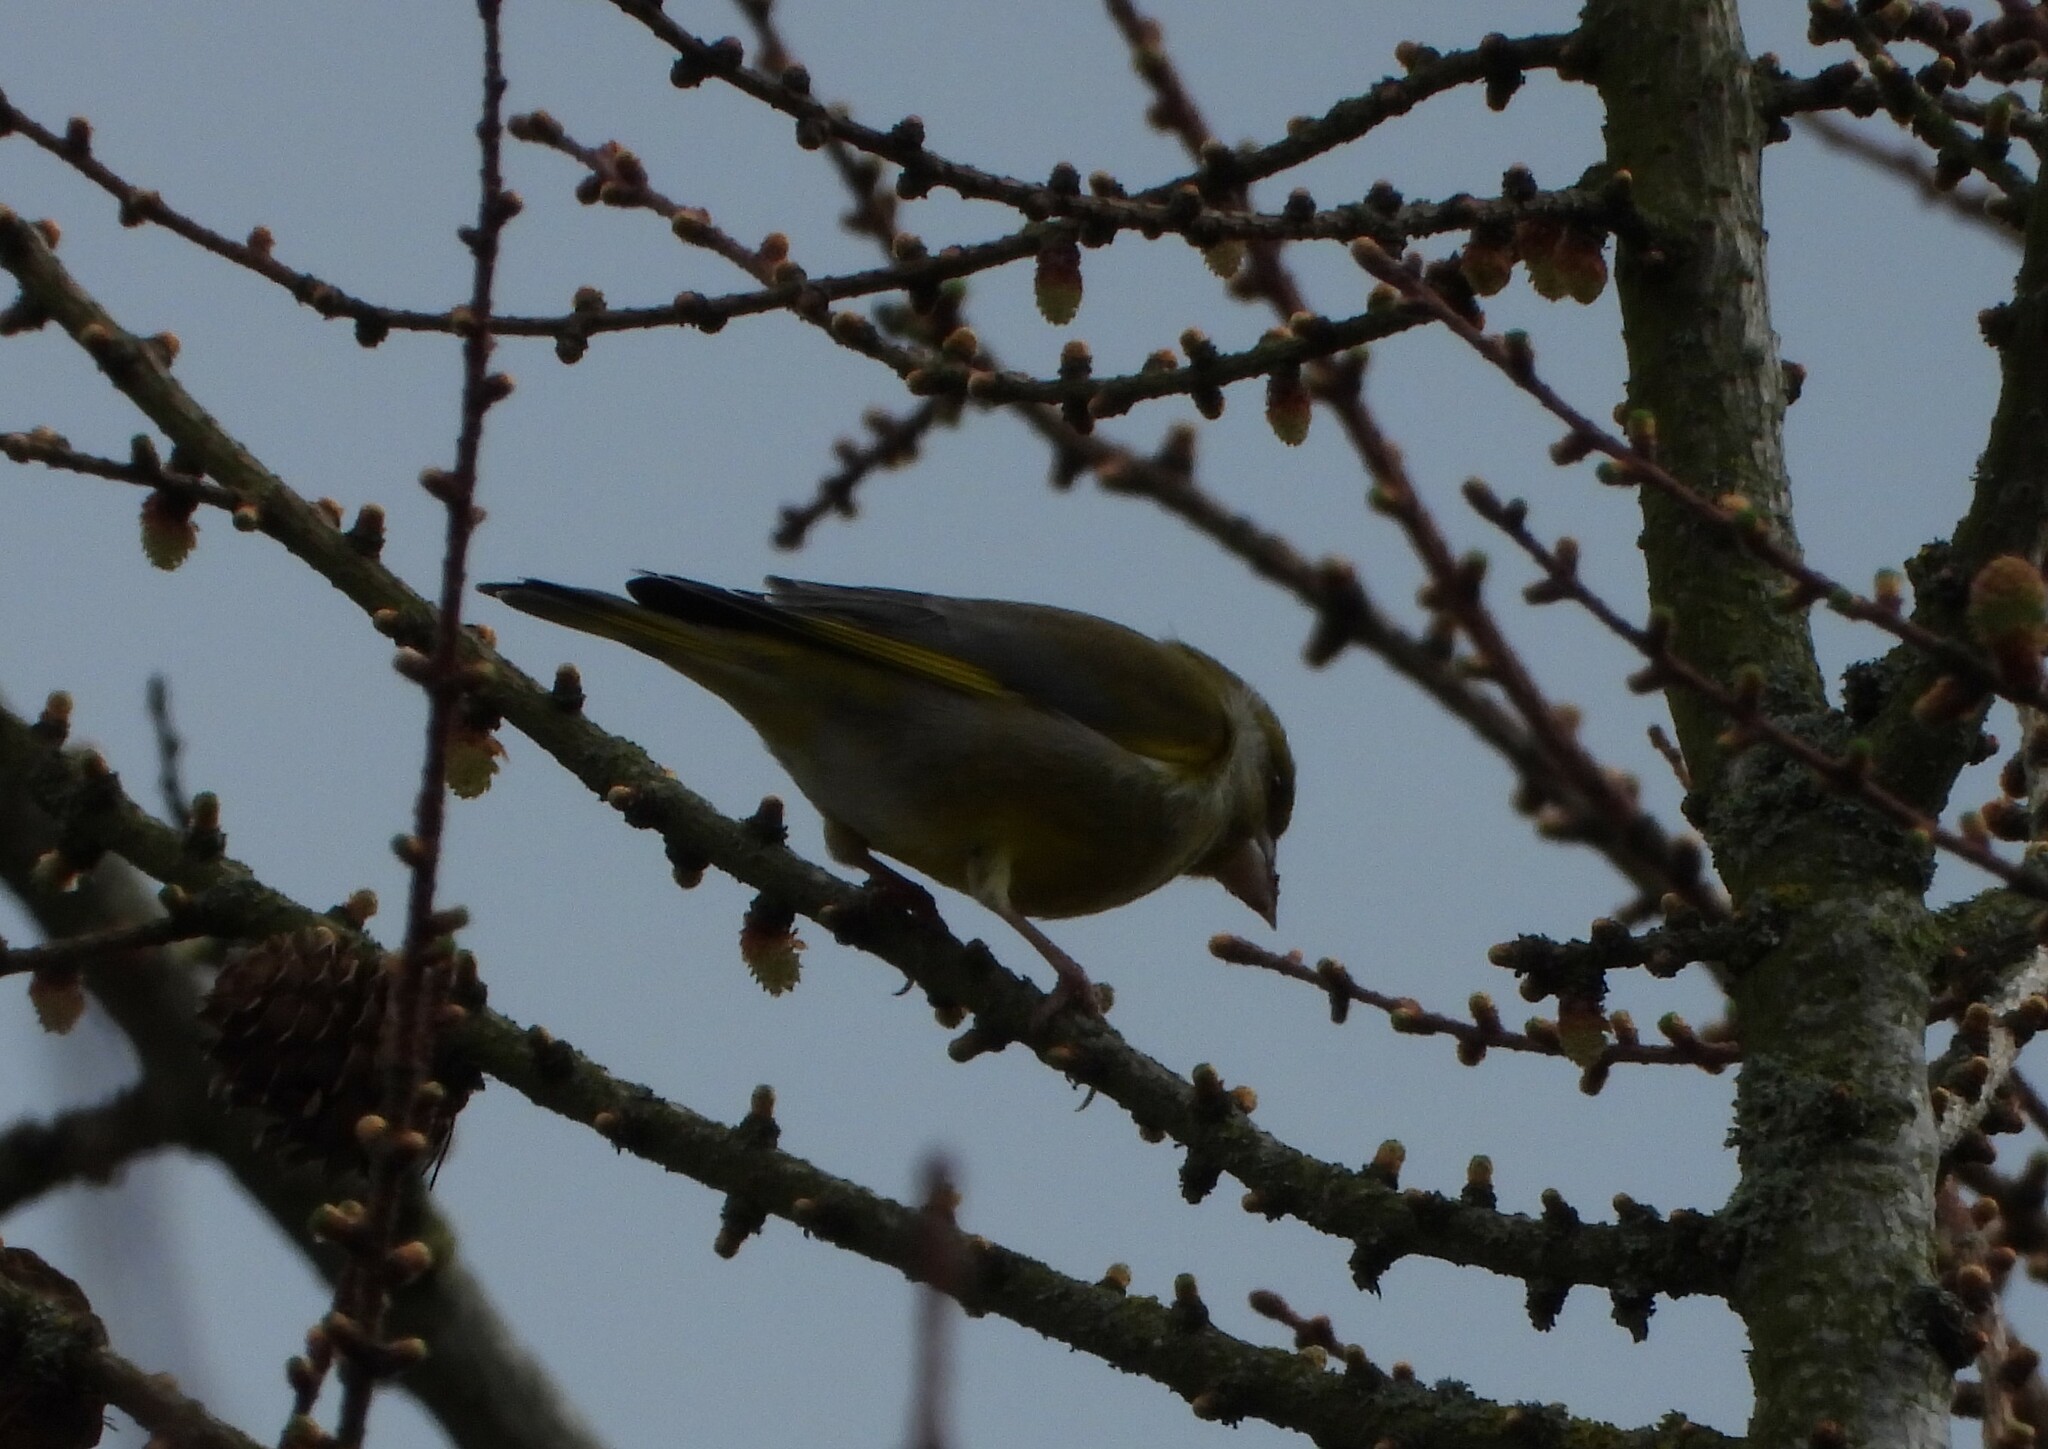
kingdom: Plantae
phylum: Tracheophyta
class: Liliopsida
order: Poales
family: Poaceae
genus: Chloris
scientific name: Chloris chloris
